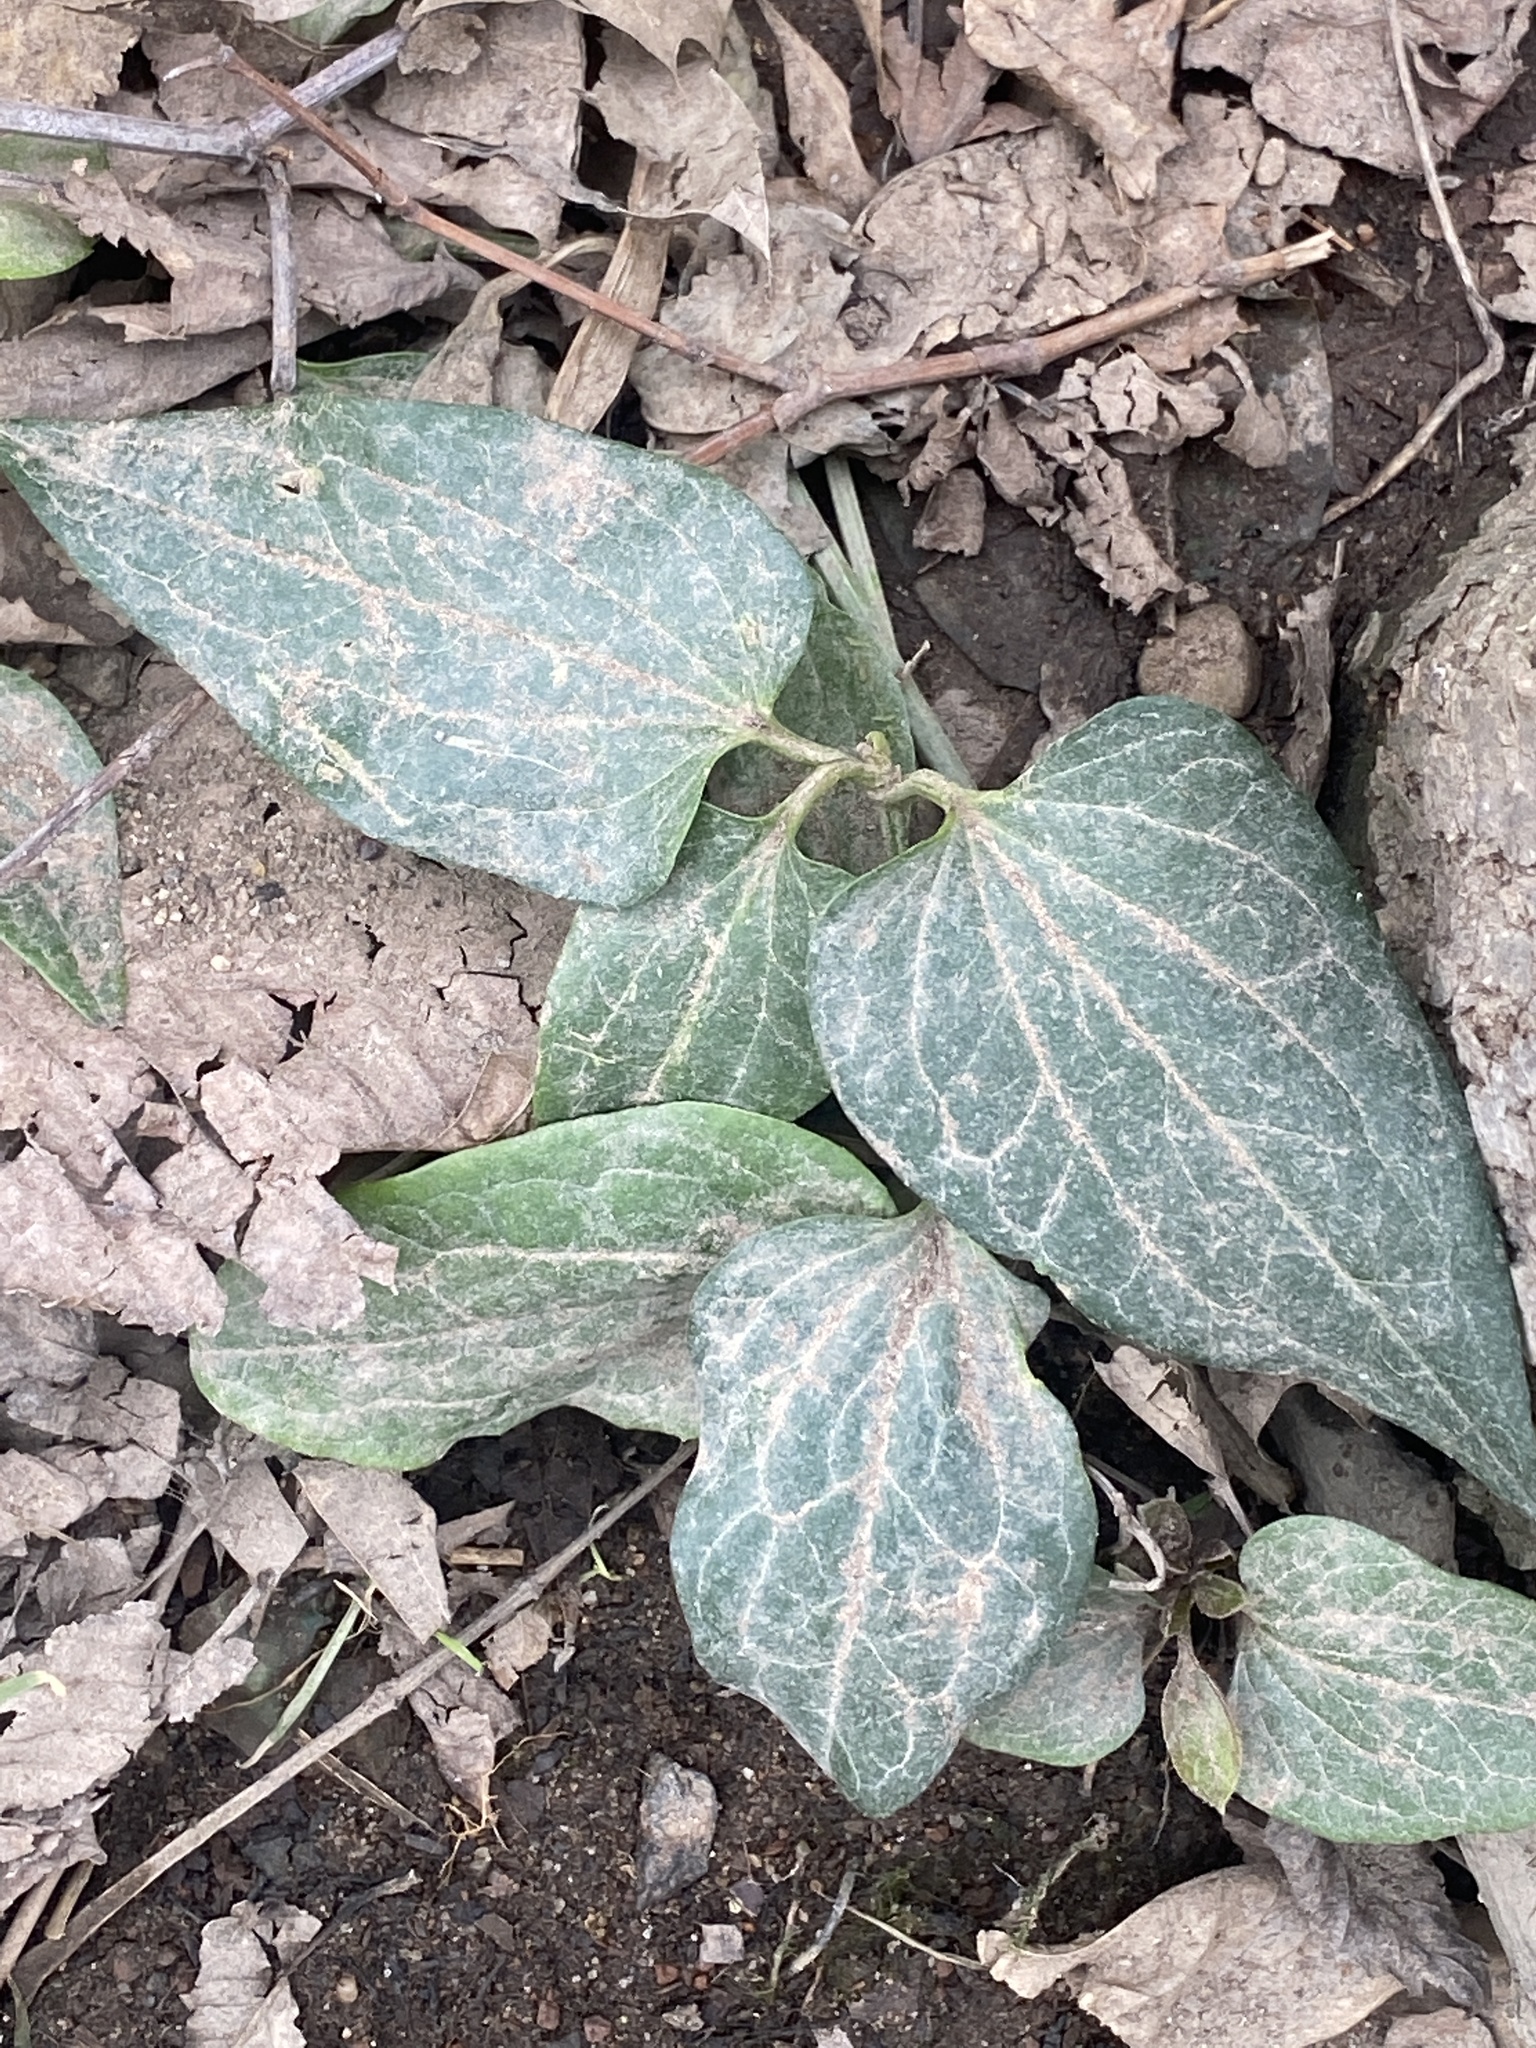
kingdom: Plantae
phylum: Tracheophyta
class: Magnoliopsida
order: Ranunculales
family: Ranunculaceae
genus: Clematis
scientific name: Clematis terniflora
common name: Sweet autumn clematis
